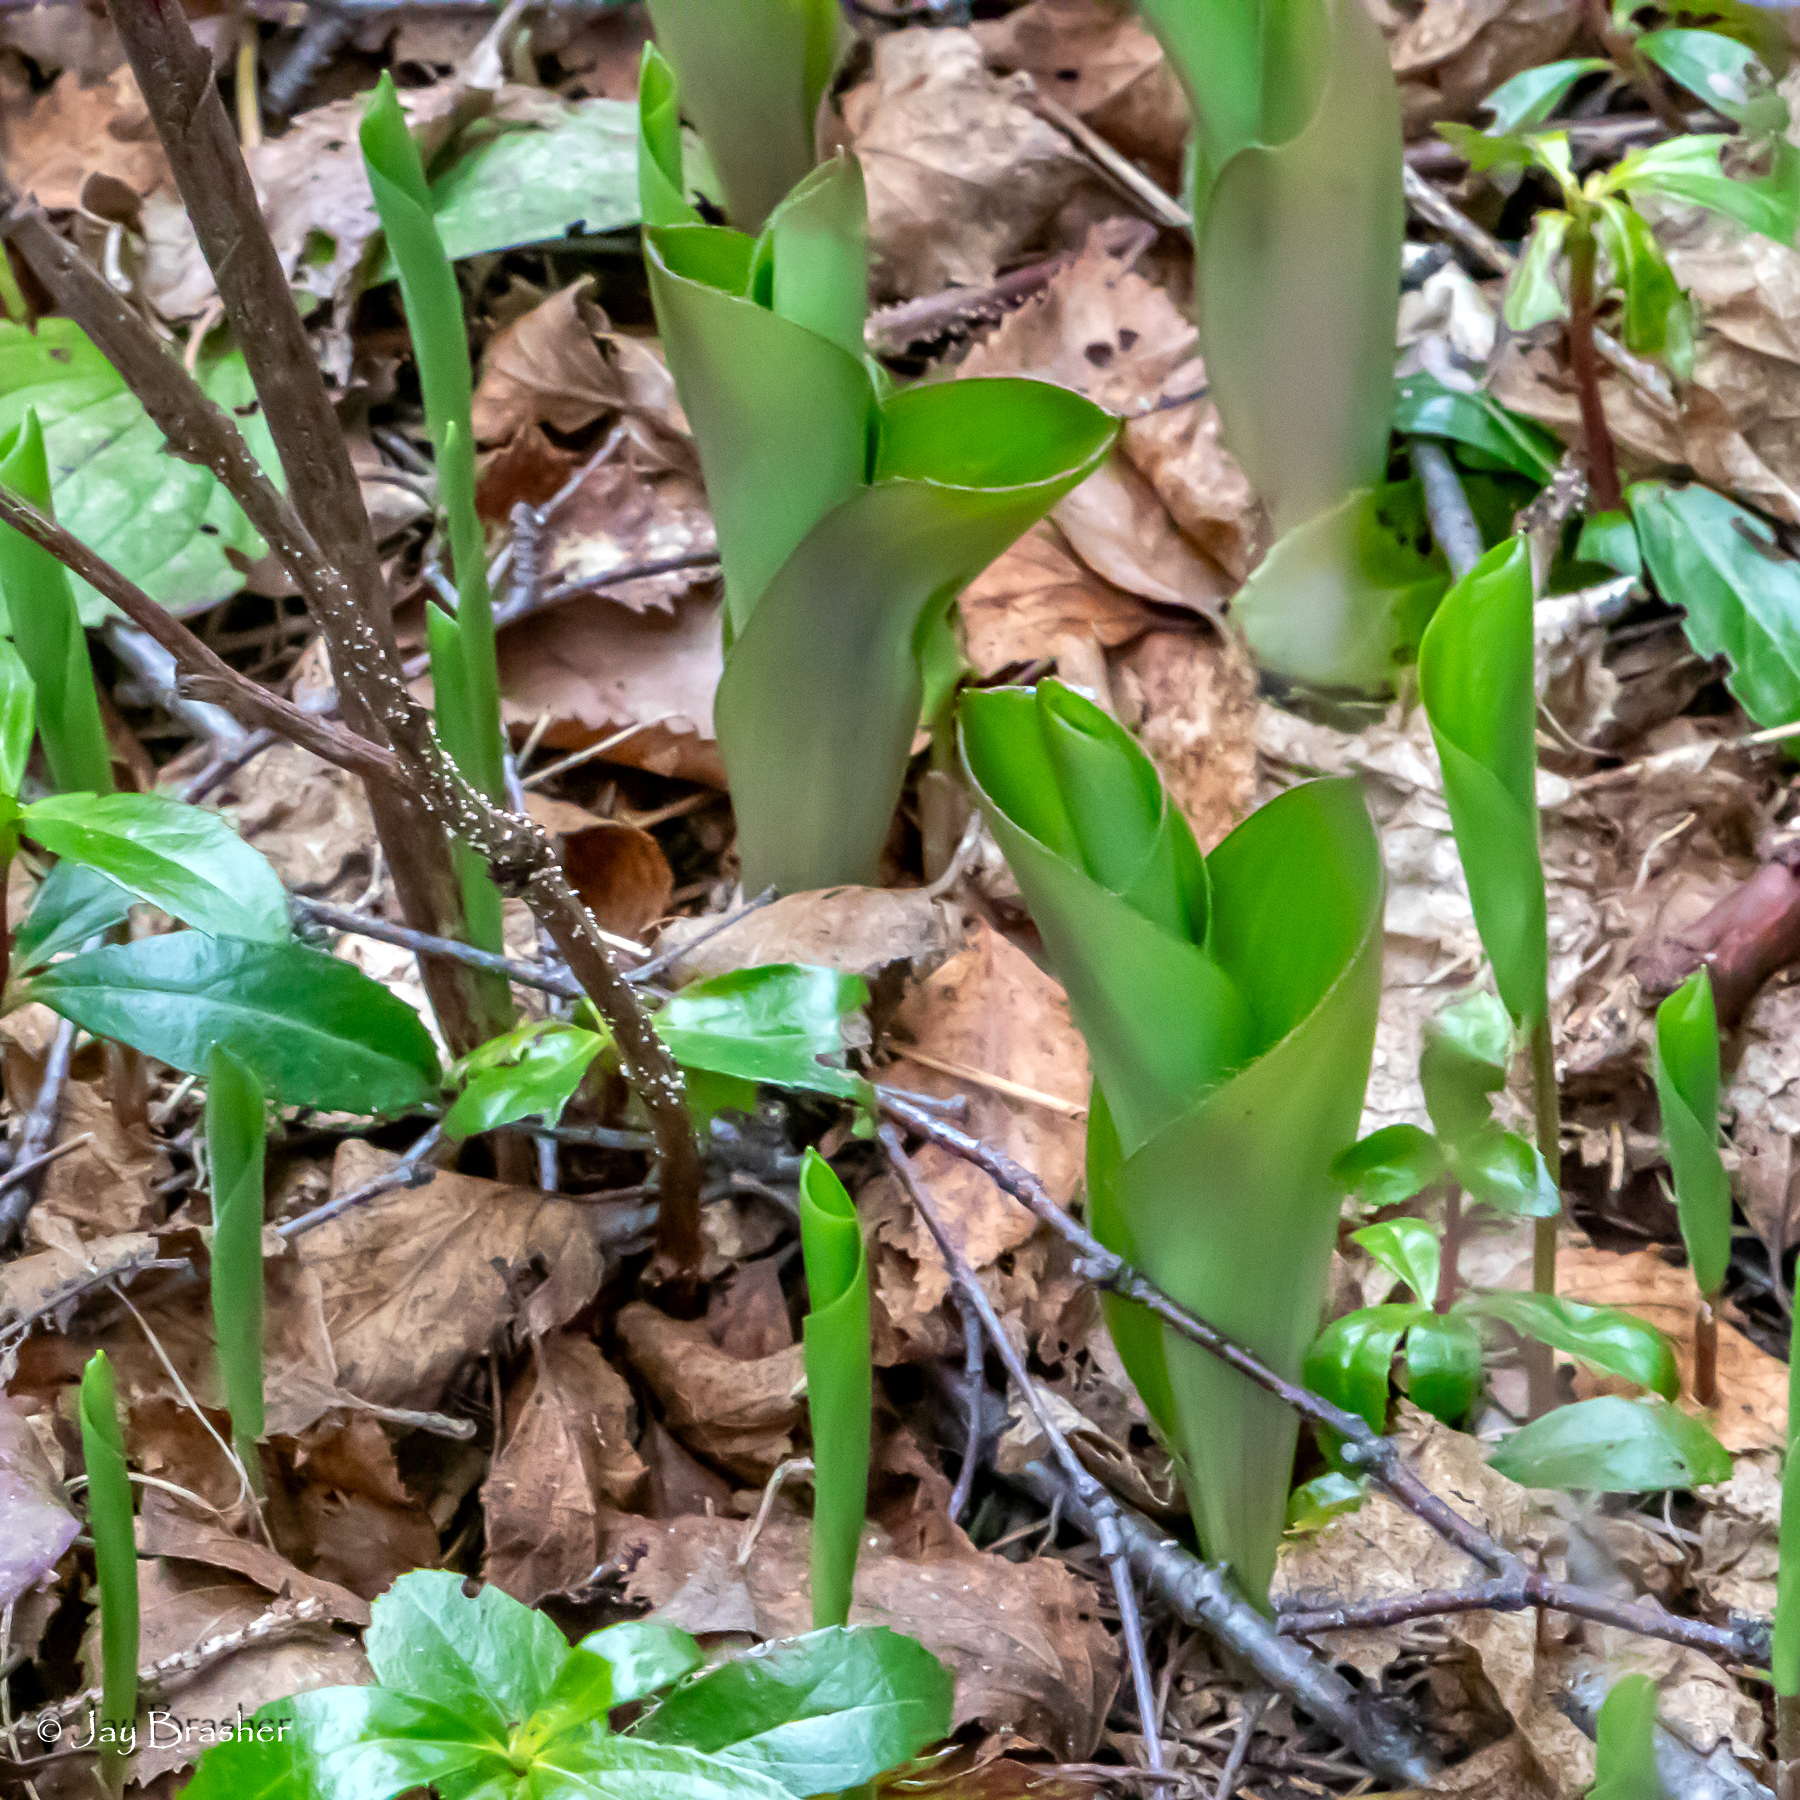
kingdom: Plantae
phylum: Tracheophyta
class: Liliopsida
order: Liliales
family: Liliaceae
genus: Clintonia
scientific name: Clintonia borealis
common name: Yellow clintonia
